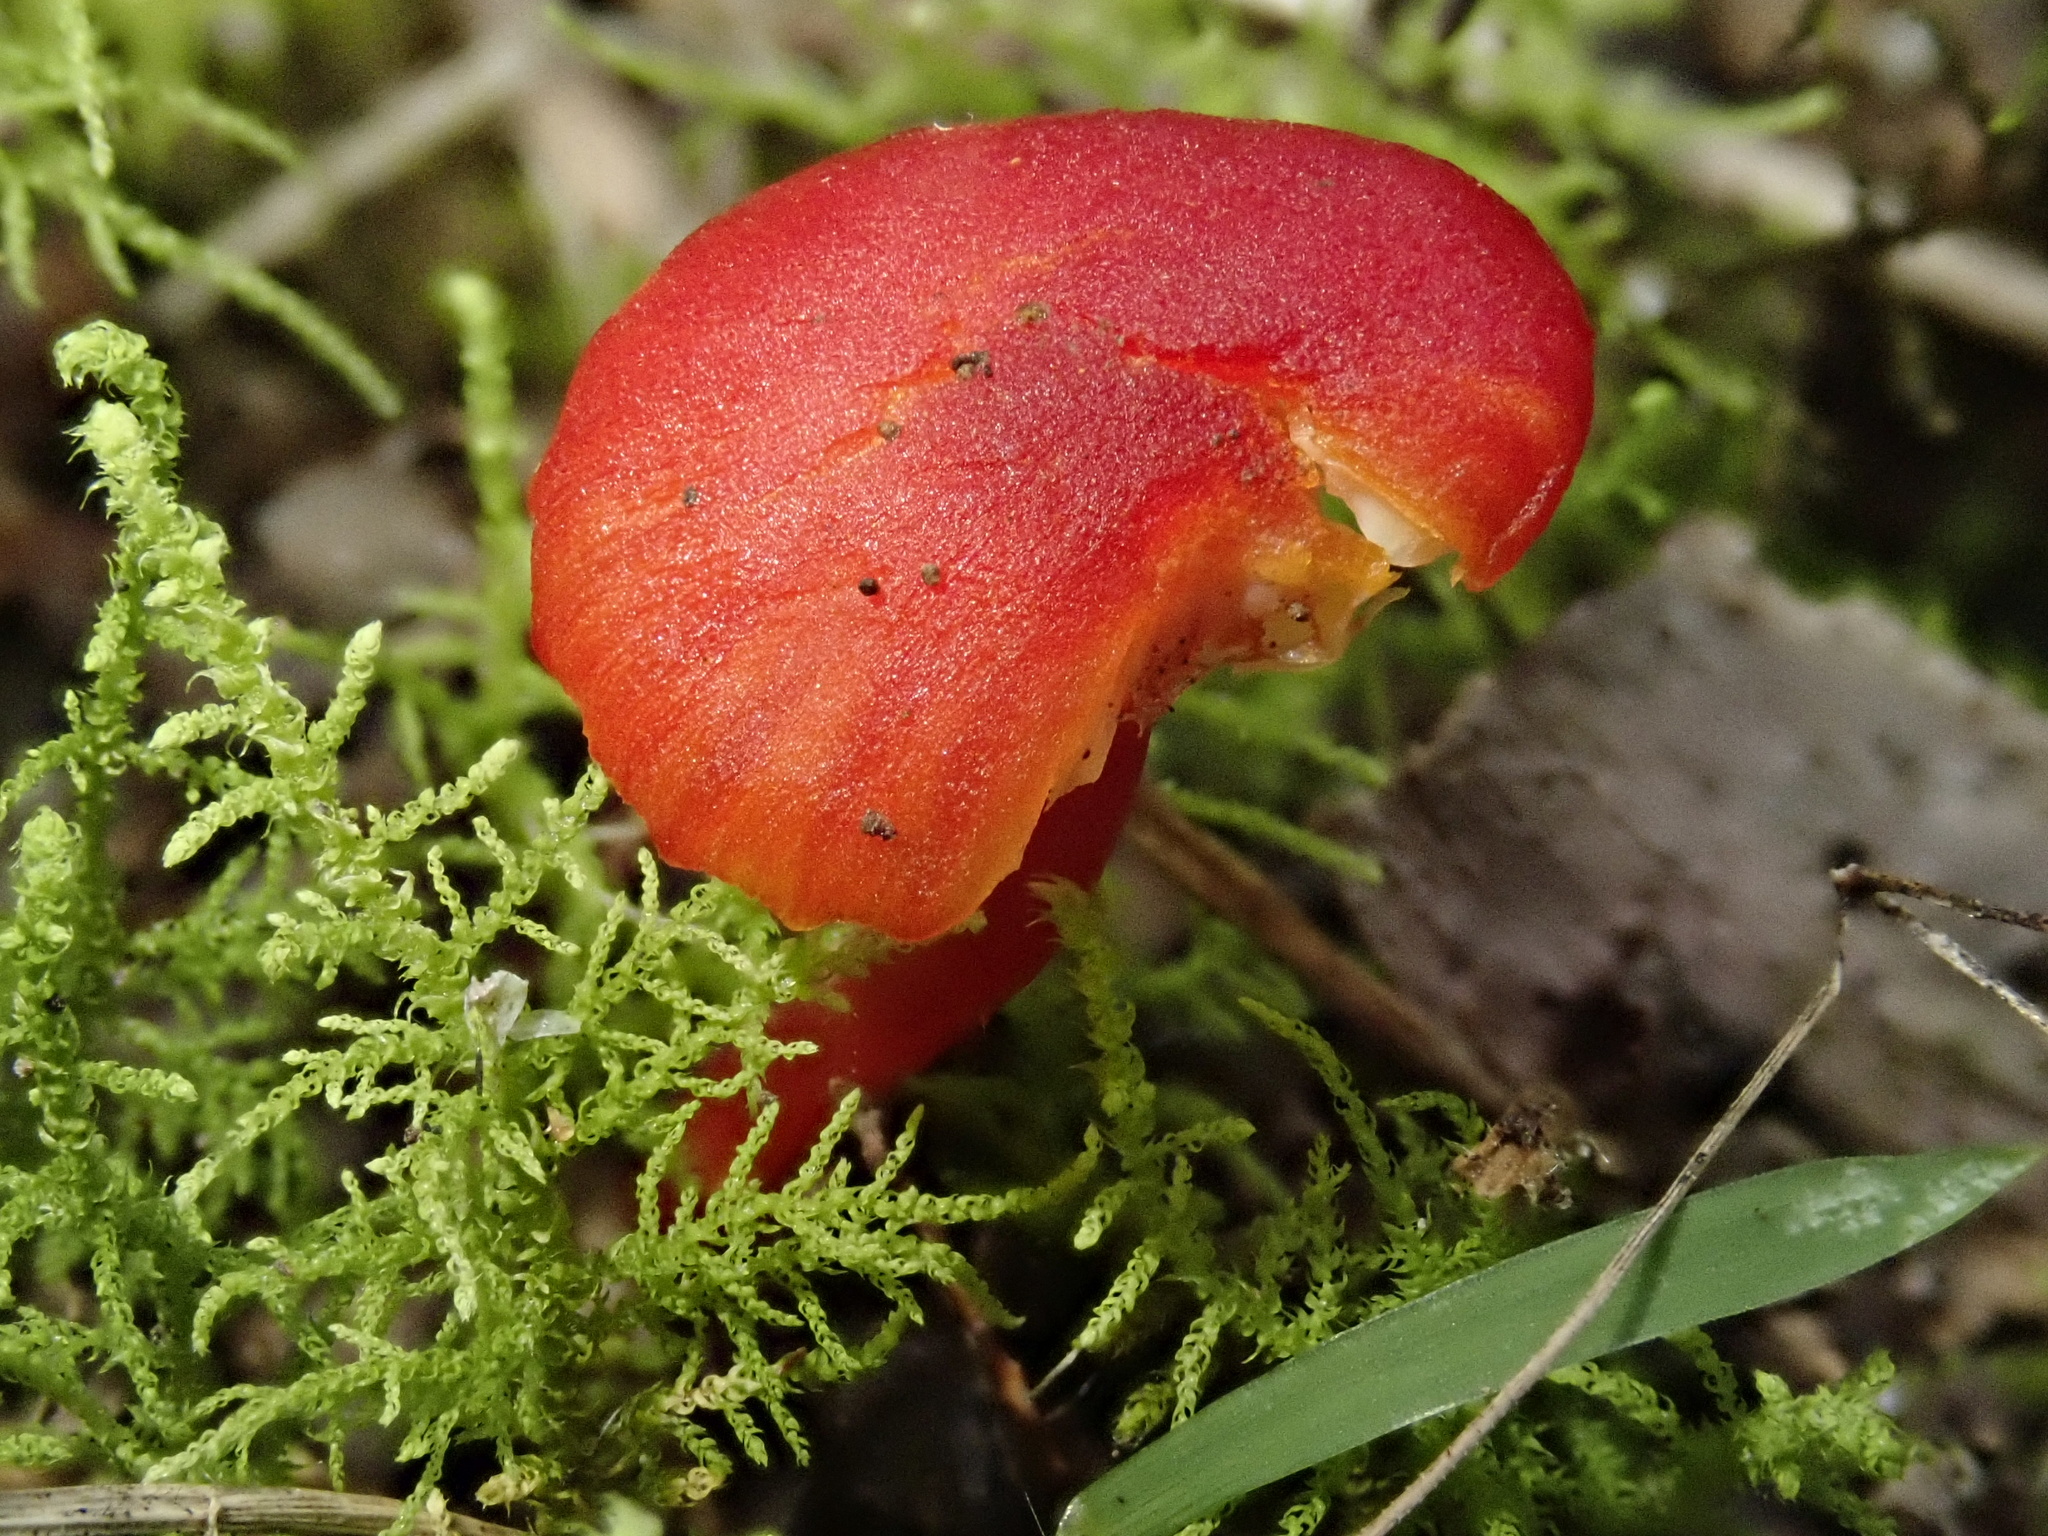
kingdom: Fungi
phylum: Basidiomycota
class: Agaricomycetes
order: Agaricales
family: Hygrophoraceae
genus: Hygrocybe
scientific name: Hygrocybe miniata
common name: Vermilion waxcap
